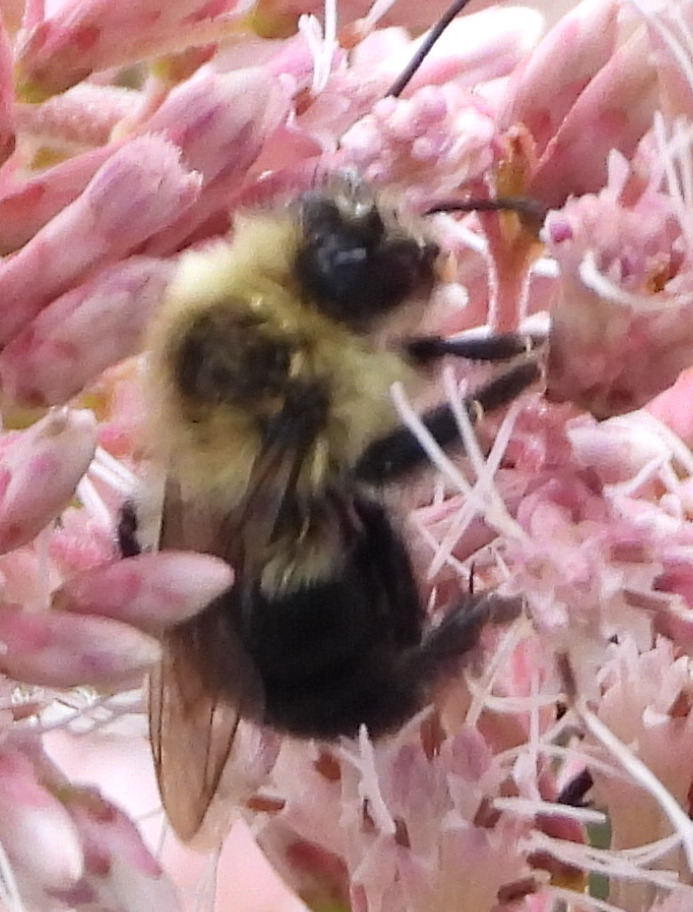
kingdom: Animalia
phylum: Arthropoda
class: Insecta
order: Hymenoptera
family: Apidae
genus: Bombus
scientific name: Bombus impatiens
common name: Common eastern bumble bee
